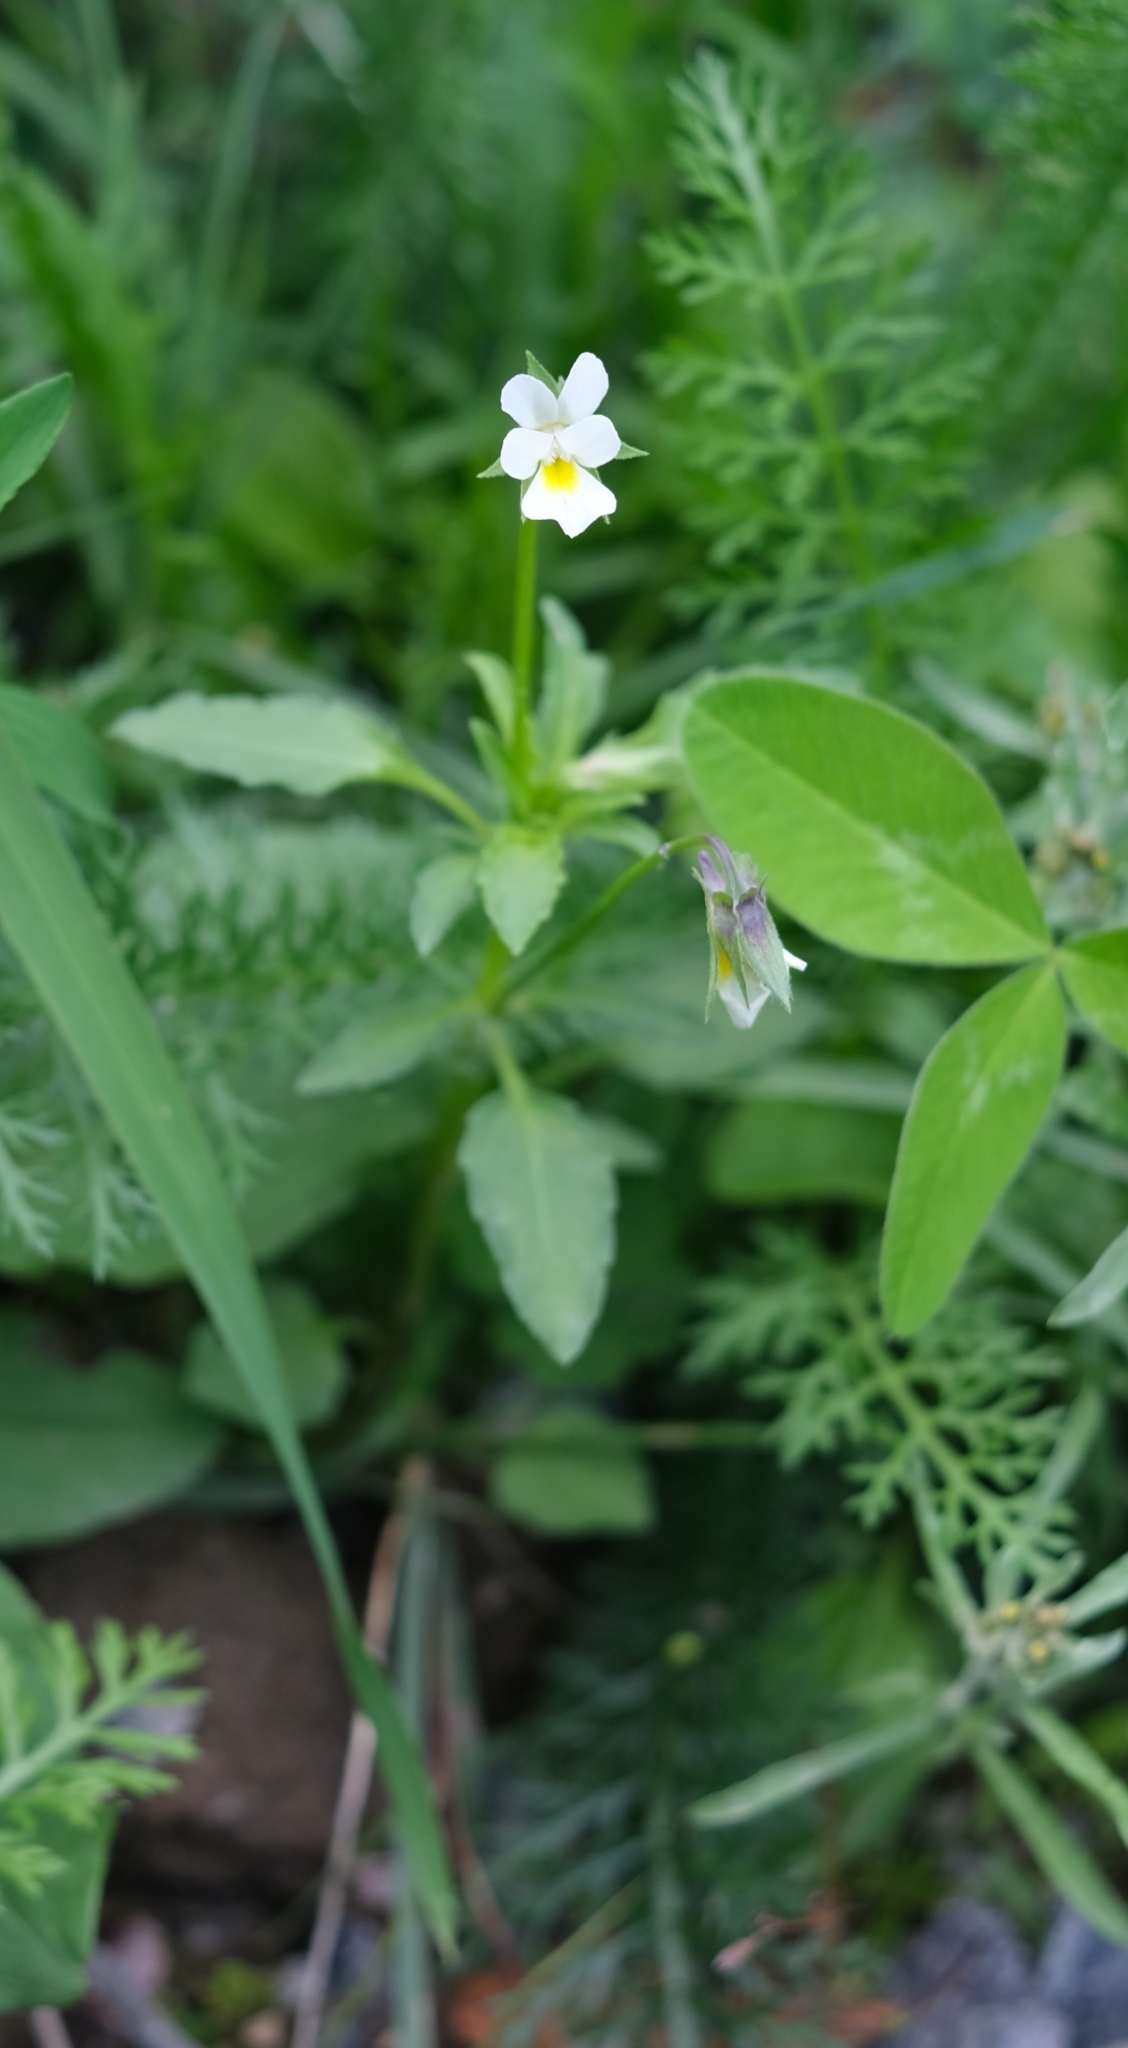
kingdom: Plantae
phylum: Tracheophyta
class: Magnoliopsida
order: Malpighiales
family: Violaceae
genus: Viola
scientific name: Viola arvensis
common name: Field pansy
